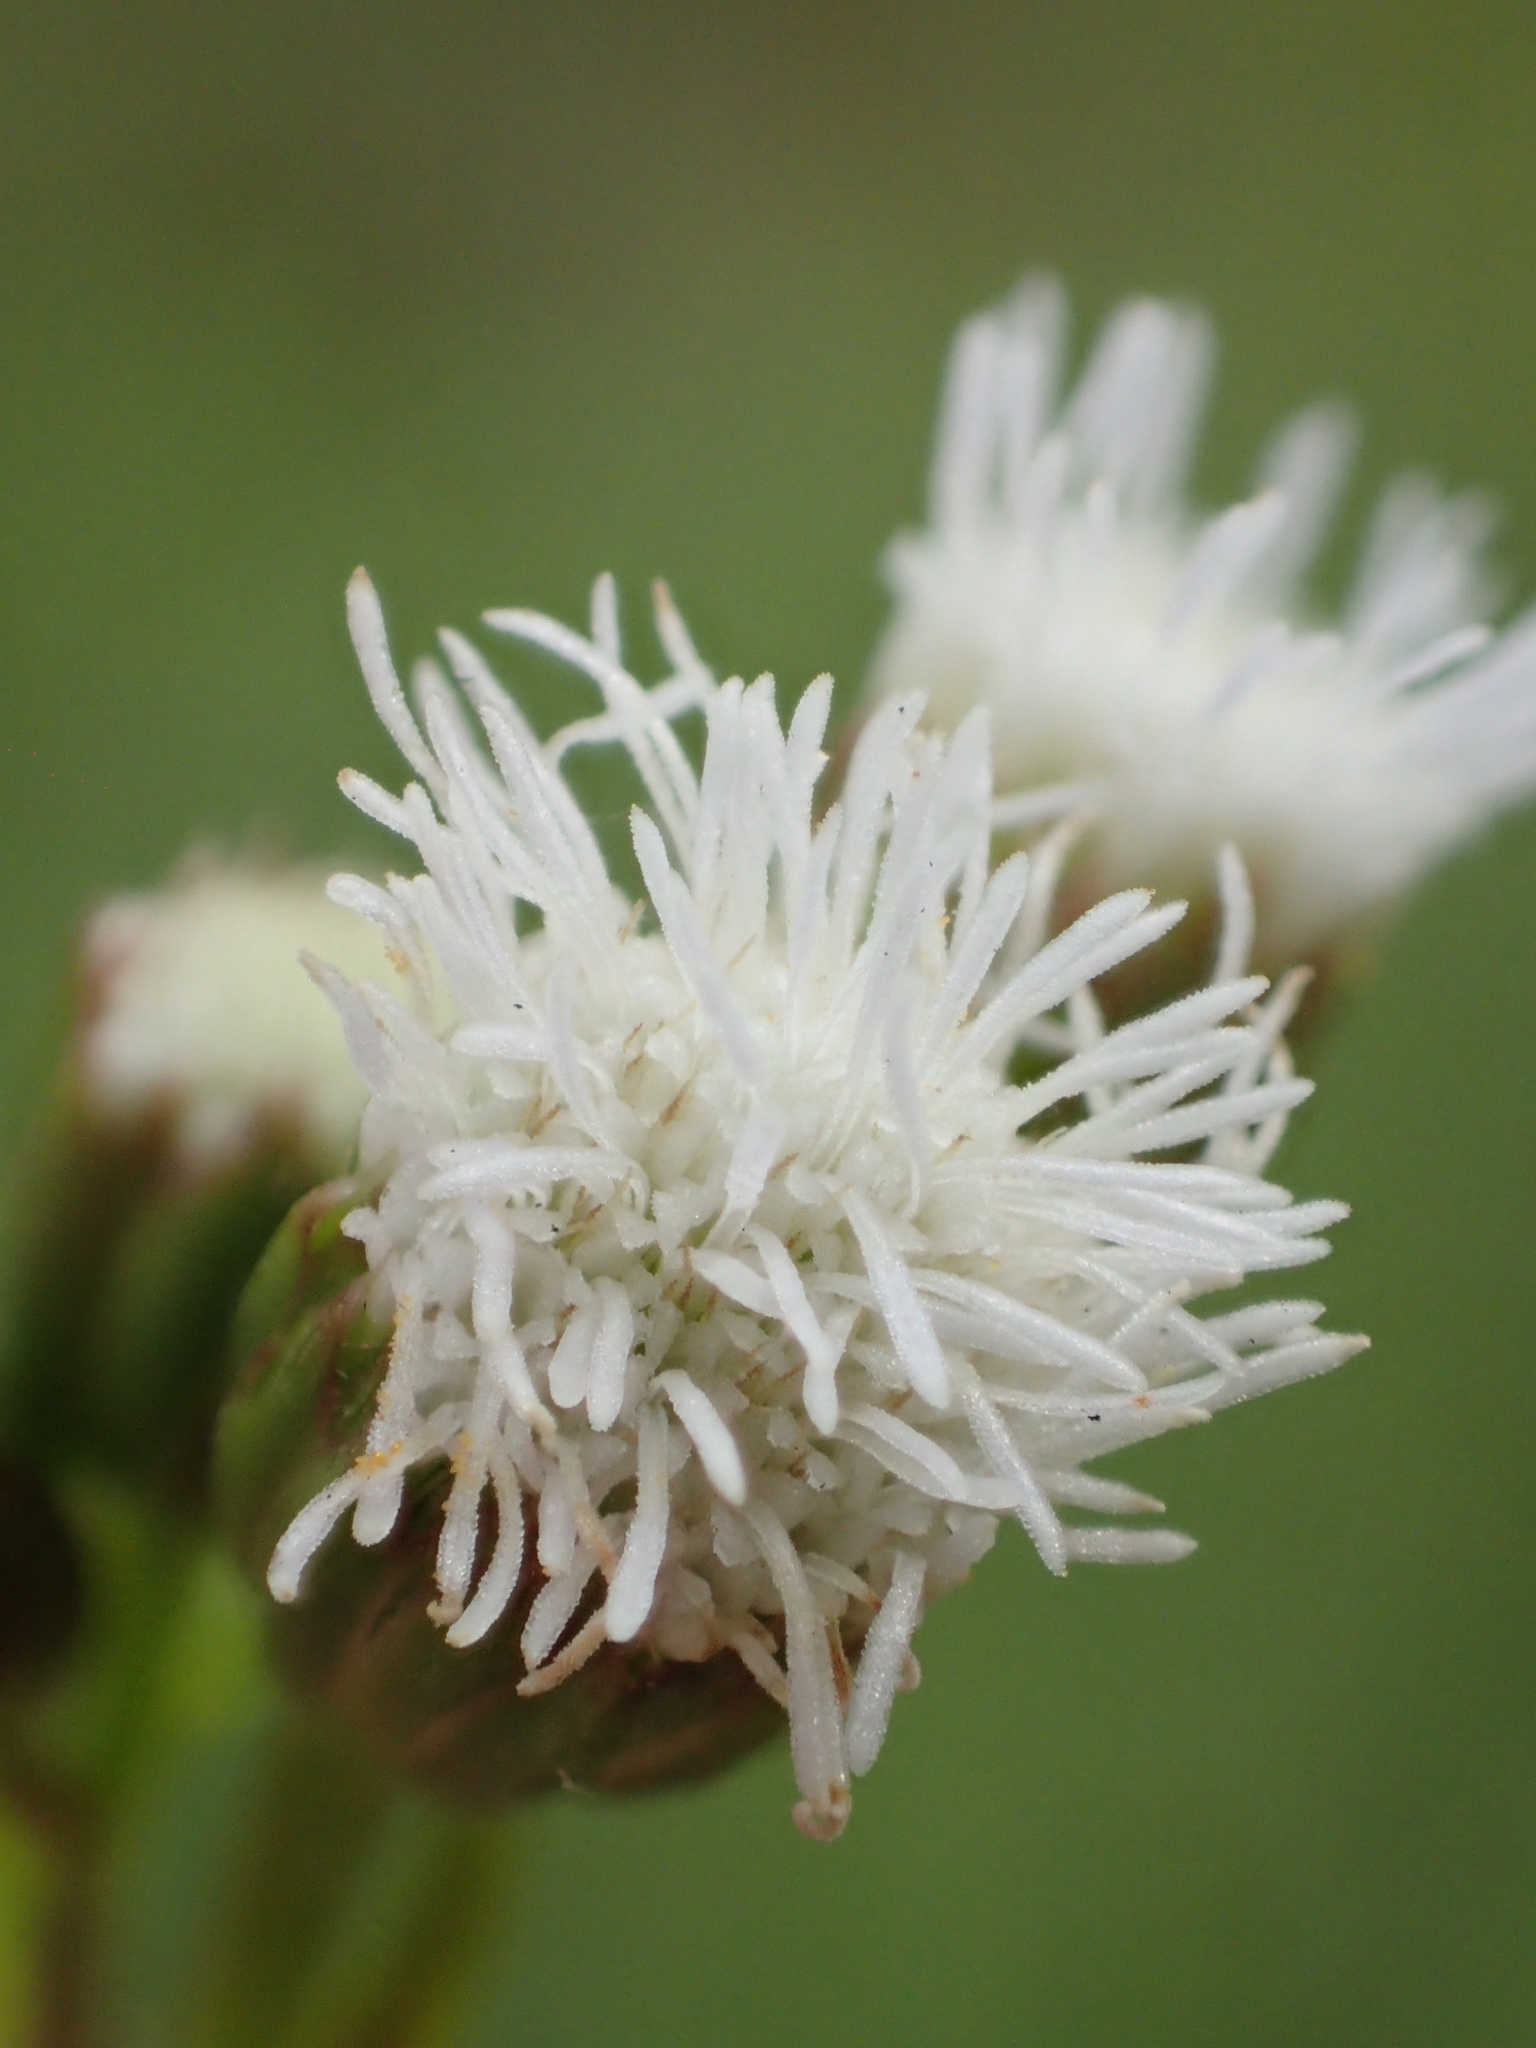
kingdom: Plantae
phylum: Tracheophyta
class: Magnoliopsida
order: Asterales
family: Asteraceae
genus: Ageratum
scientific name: Ageratum conyzoides
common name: Tropical whiteweed
